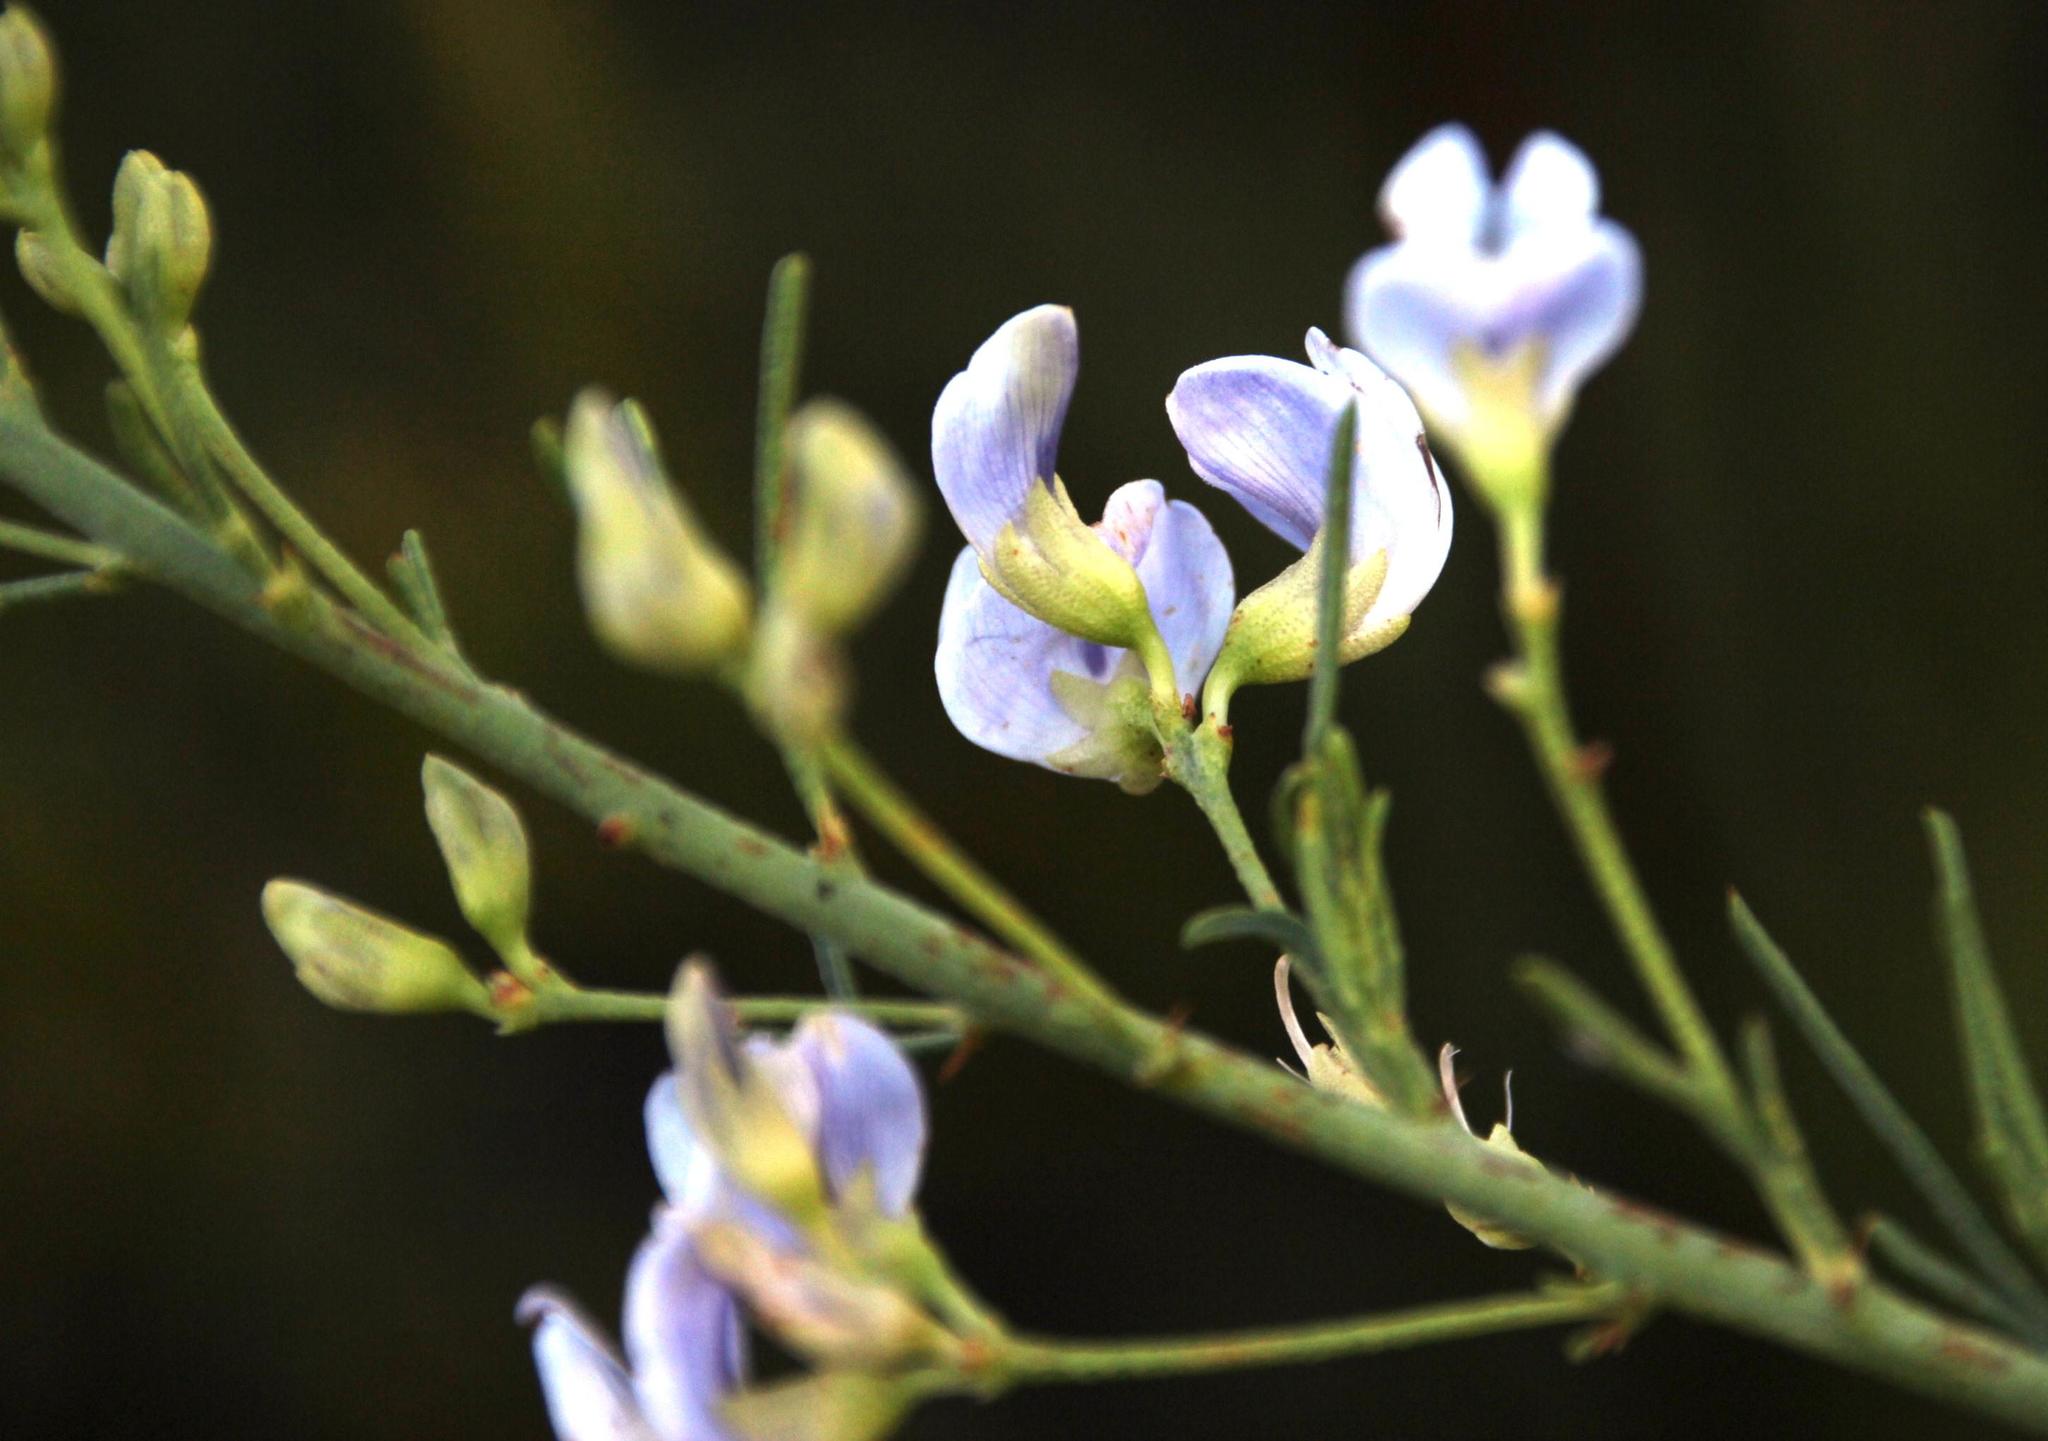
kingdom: Plantae
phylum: Tracheophyta
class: Magnoliopsida
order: Fabales
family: Fabaceae
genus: Psoralea
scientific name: Psoralea verrucosa
